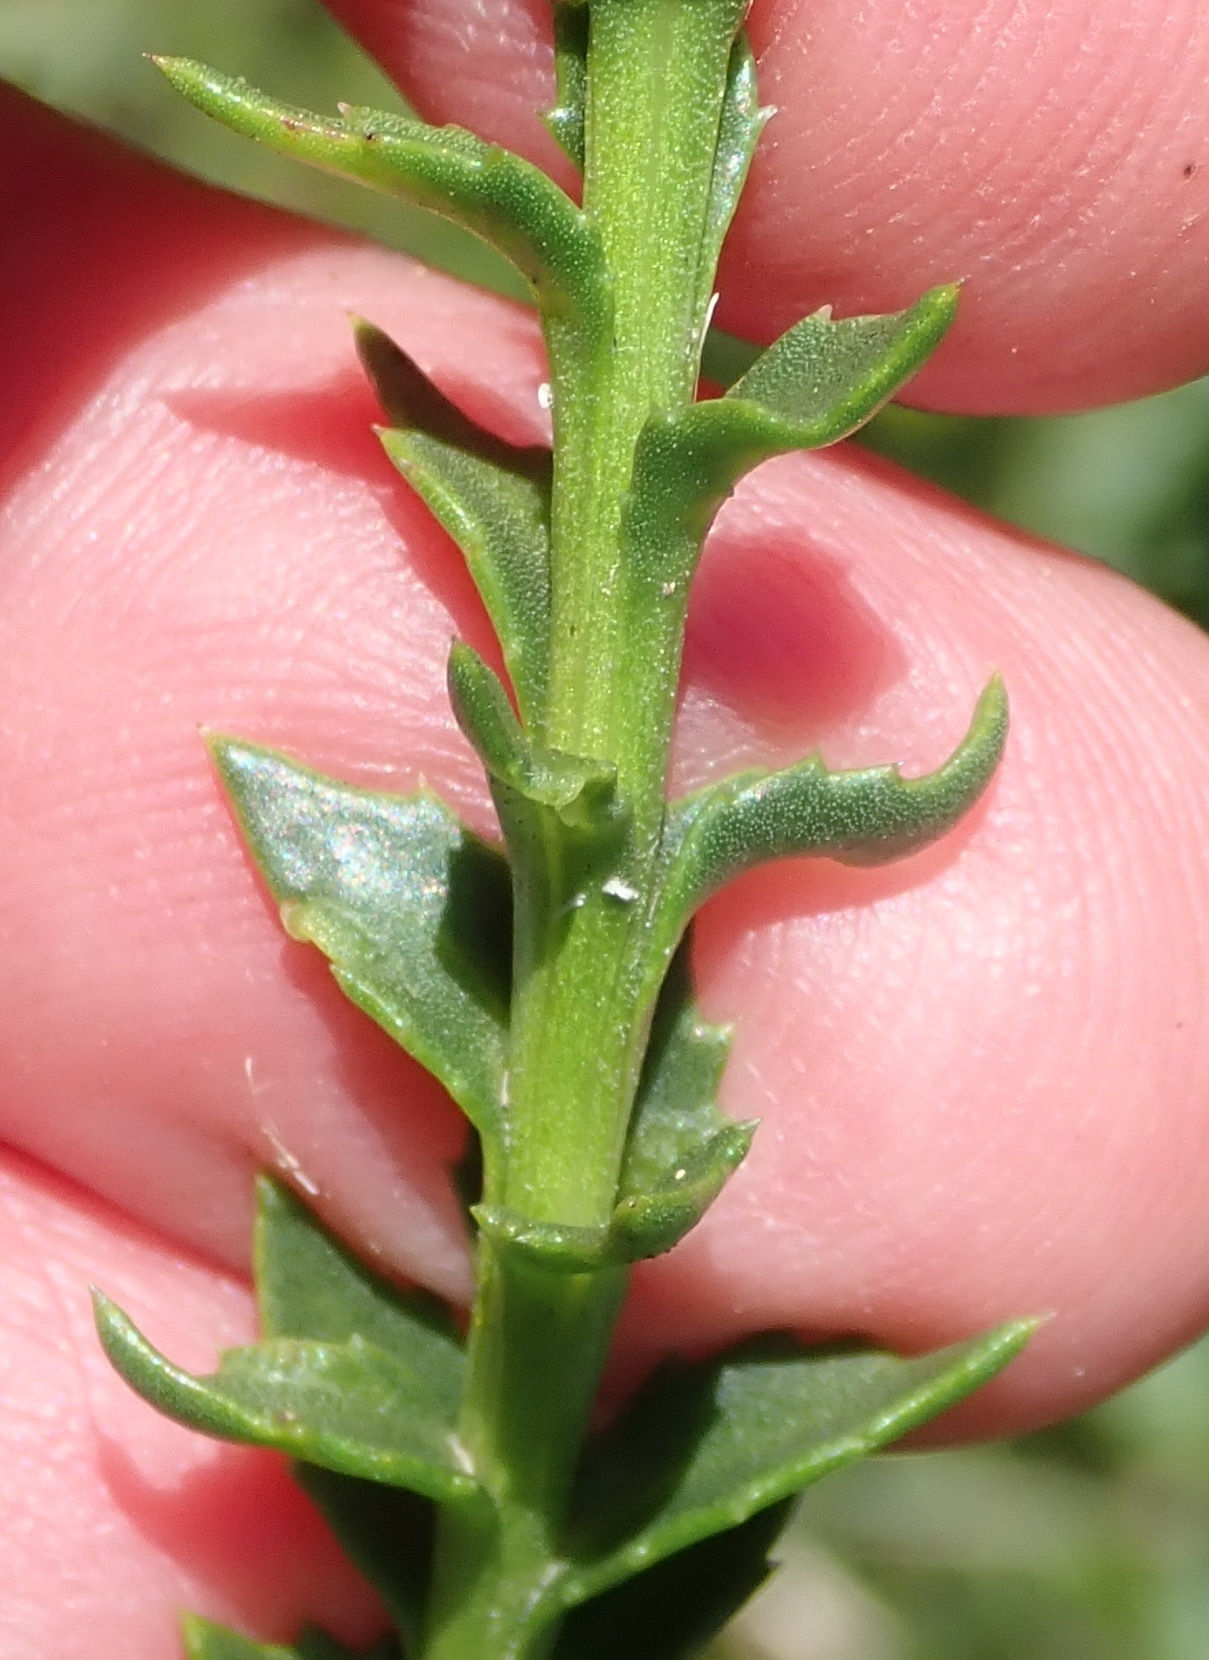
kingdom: Plantae
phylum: Tracheophyta
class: Magnoliopsida
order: Asterales
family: Asteraceae
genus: Athanasia
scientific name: Athanasia dentata
